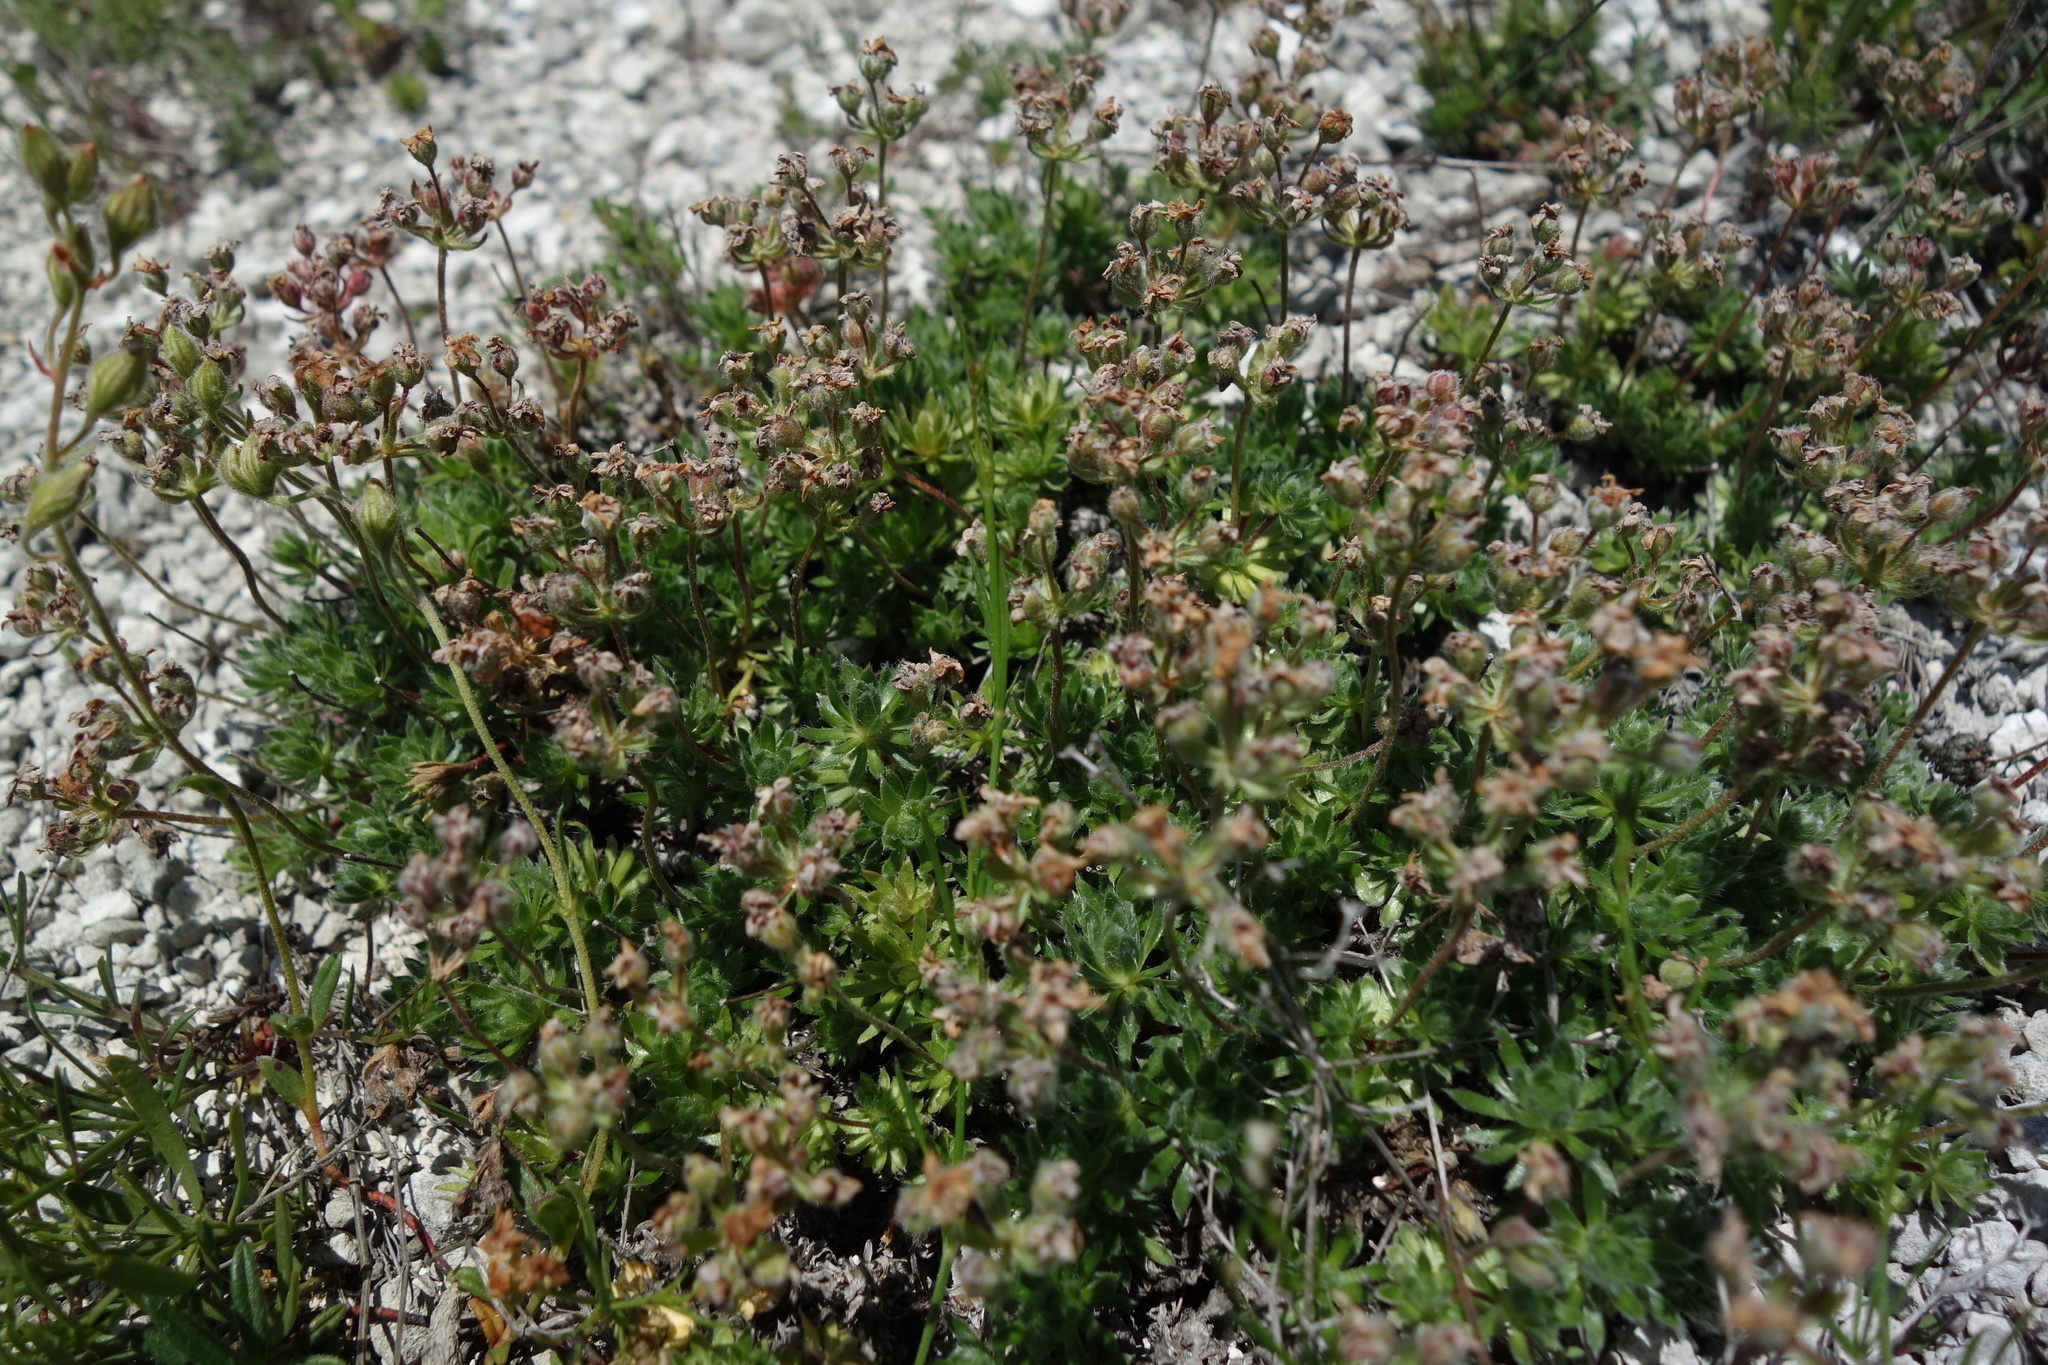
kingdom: Plantae
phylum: Tracheophyta
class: Magnoliopsida
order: Ericales
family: Primulaceae
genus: Androsace
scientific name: Androsace villosa
